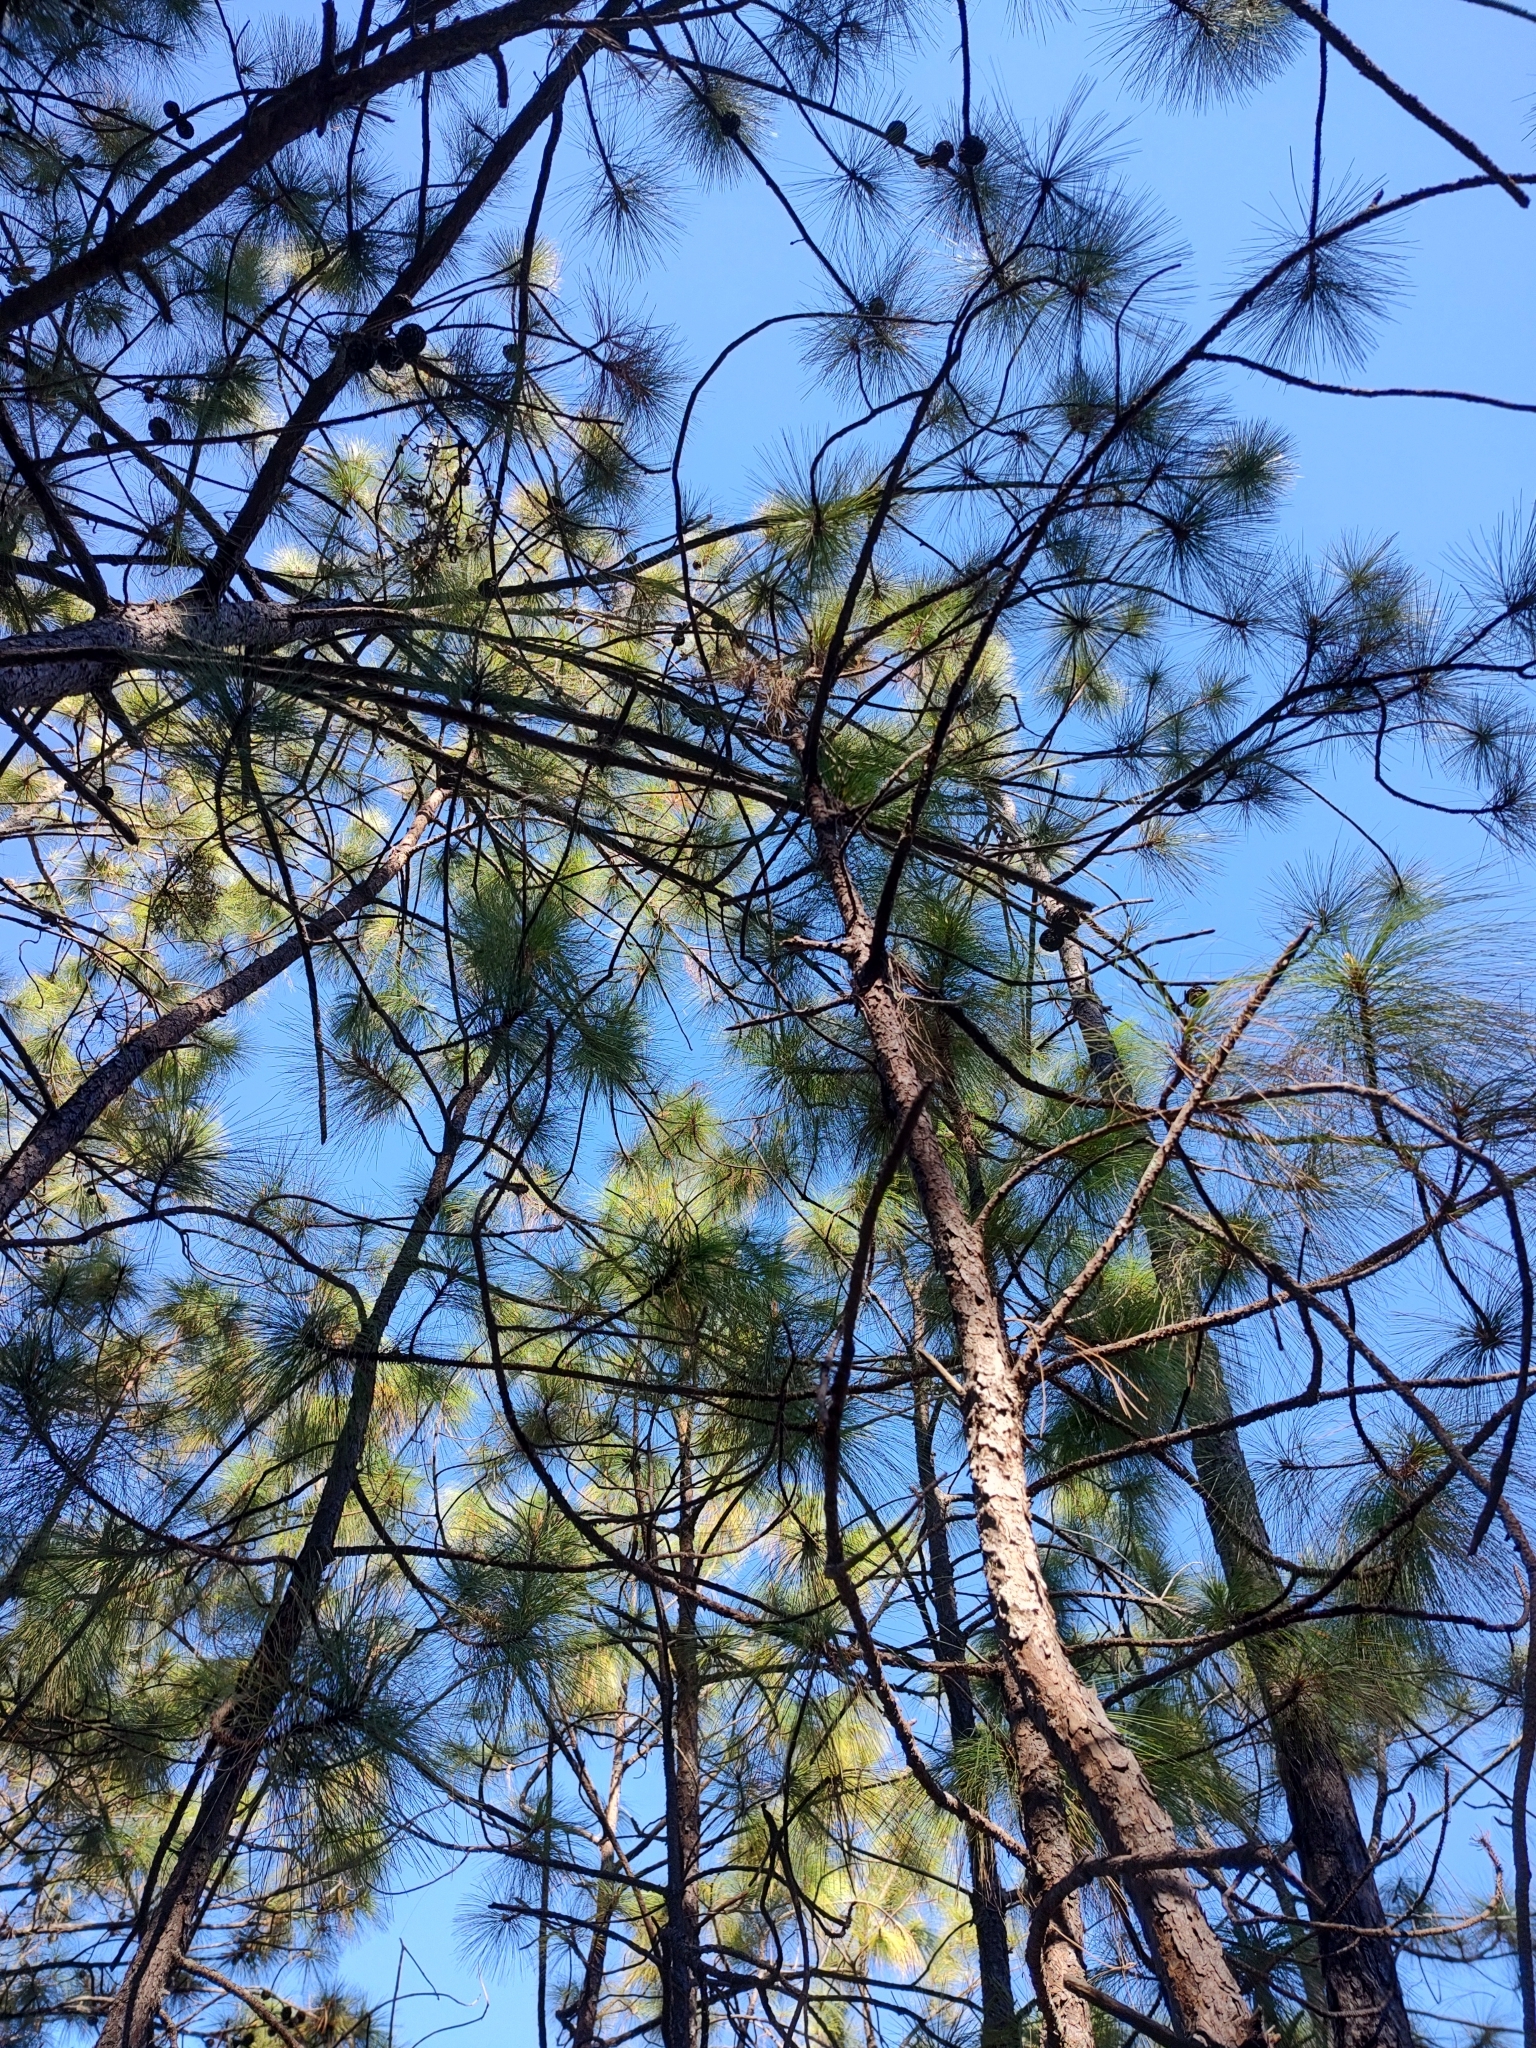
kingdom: Plantae
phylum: Tracheophyta
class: Pinopsida
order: Pinales
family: Pinaceae
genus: Pinus
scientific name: Pinus oocarpa
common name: Egg-cone pine
